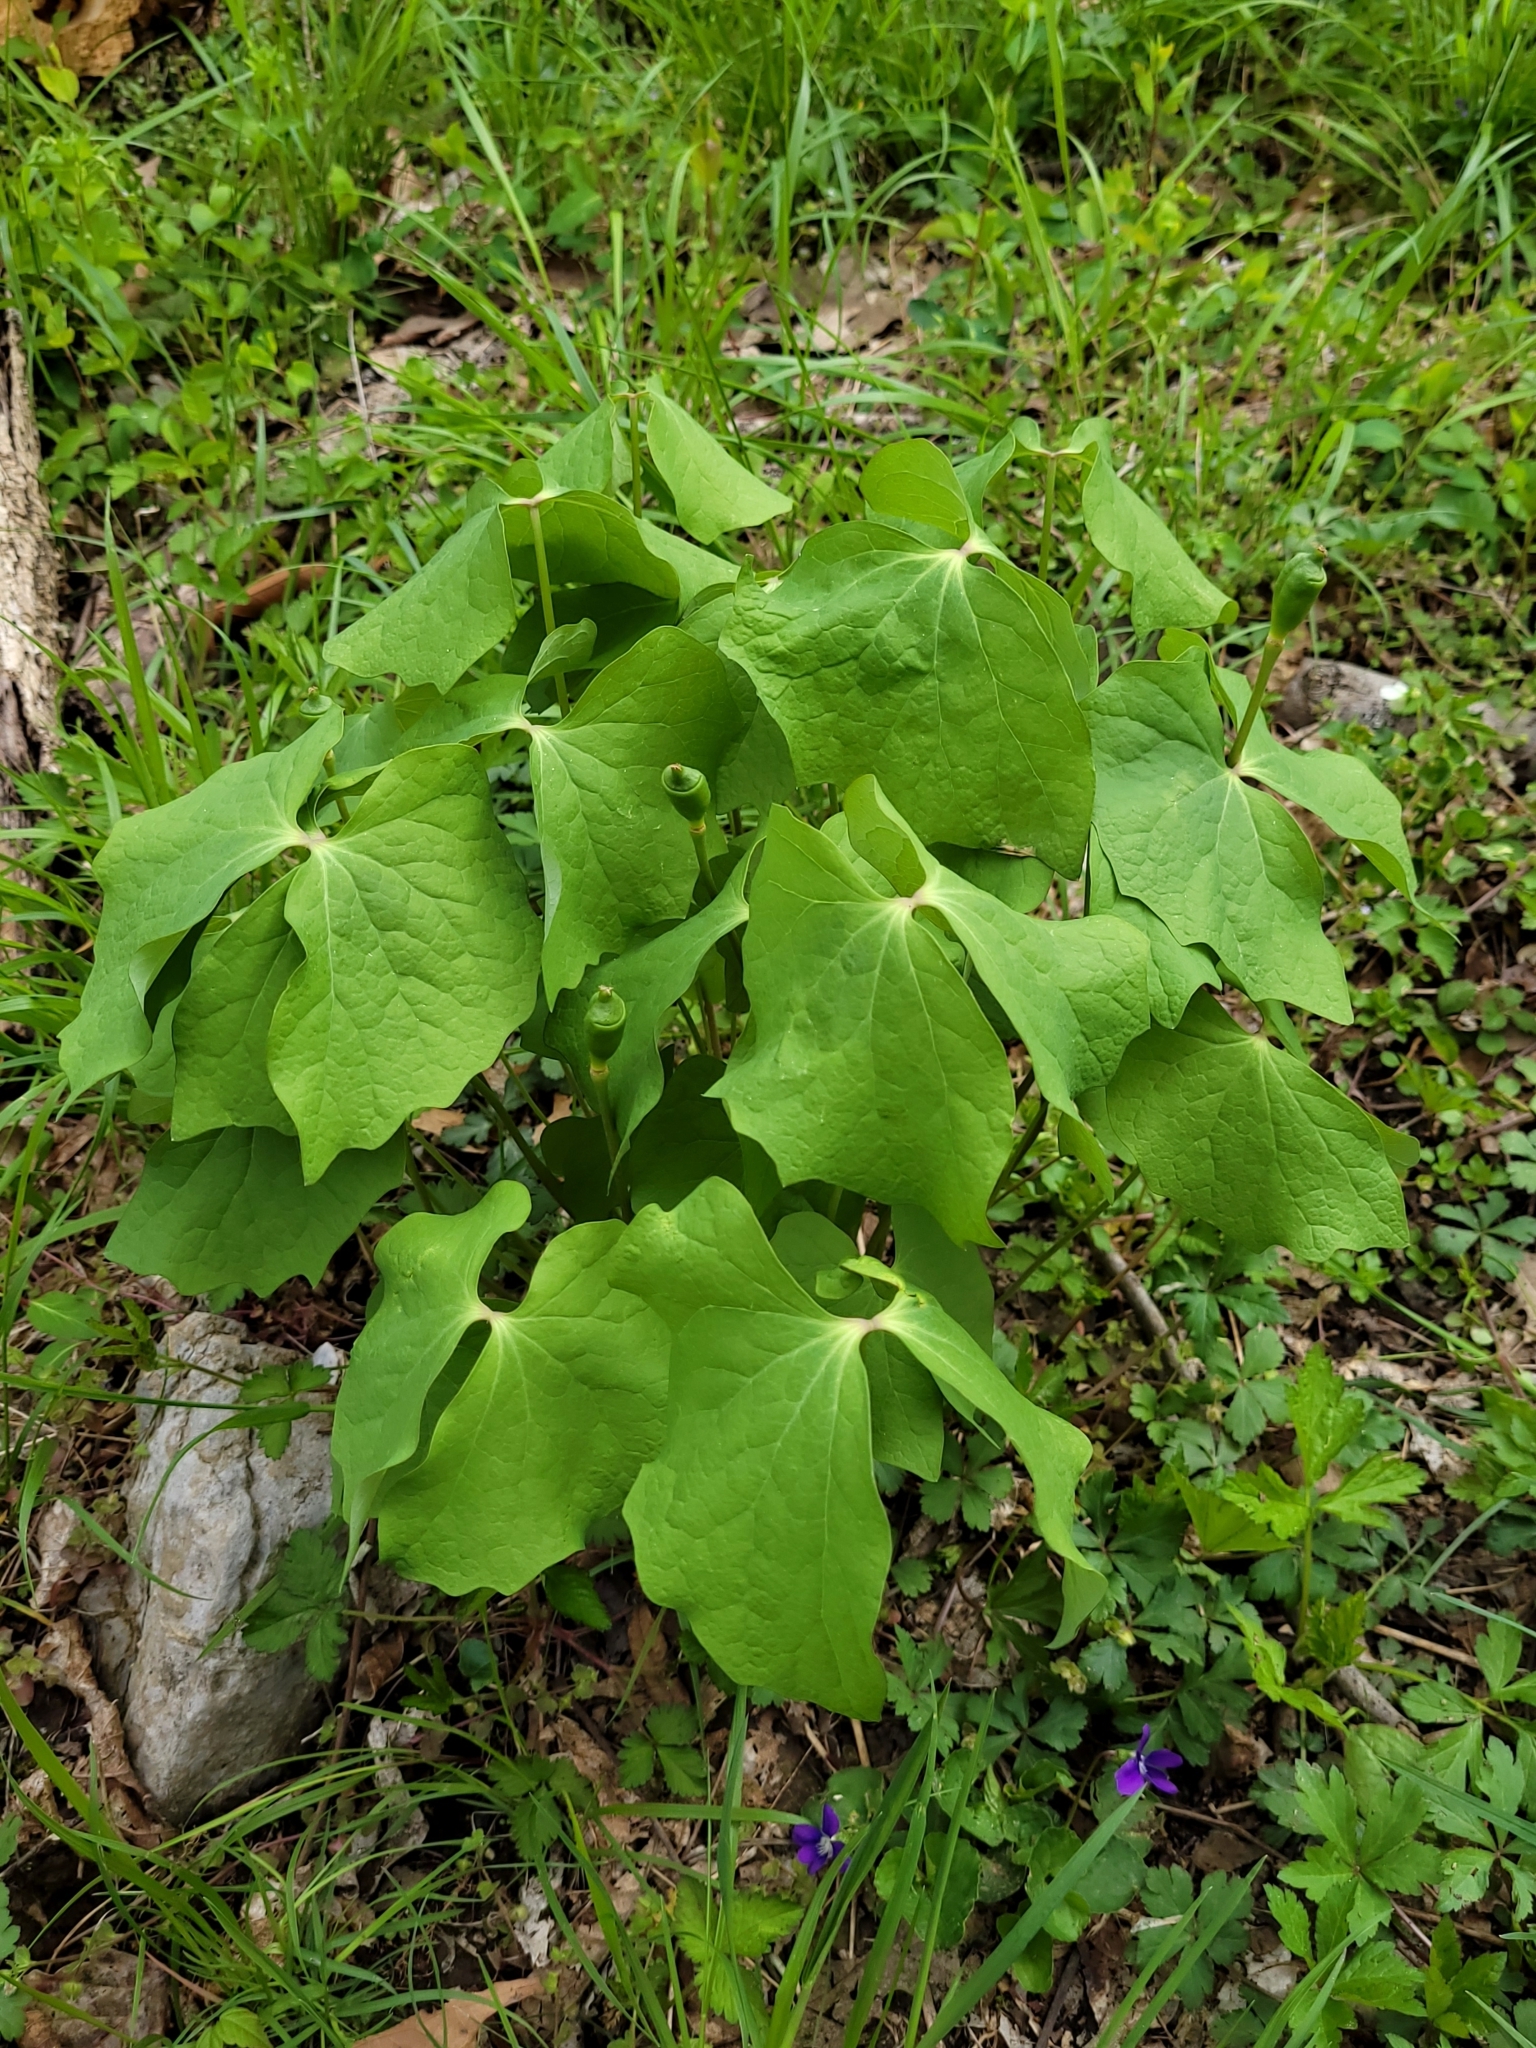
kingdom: Plantae
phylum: Tracheophyta
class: Magnoliopsida
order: Ranunculales
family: Berberidaceae
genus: Jeffersonia
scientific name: Jeffersonia diphylla
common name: Rheumatism-root
